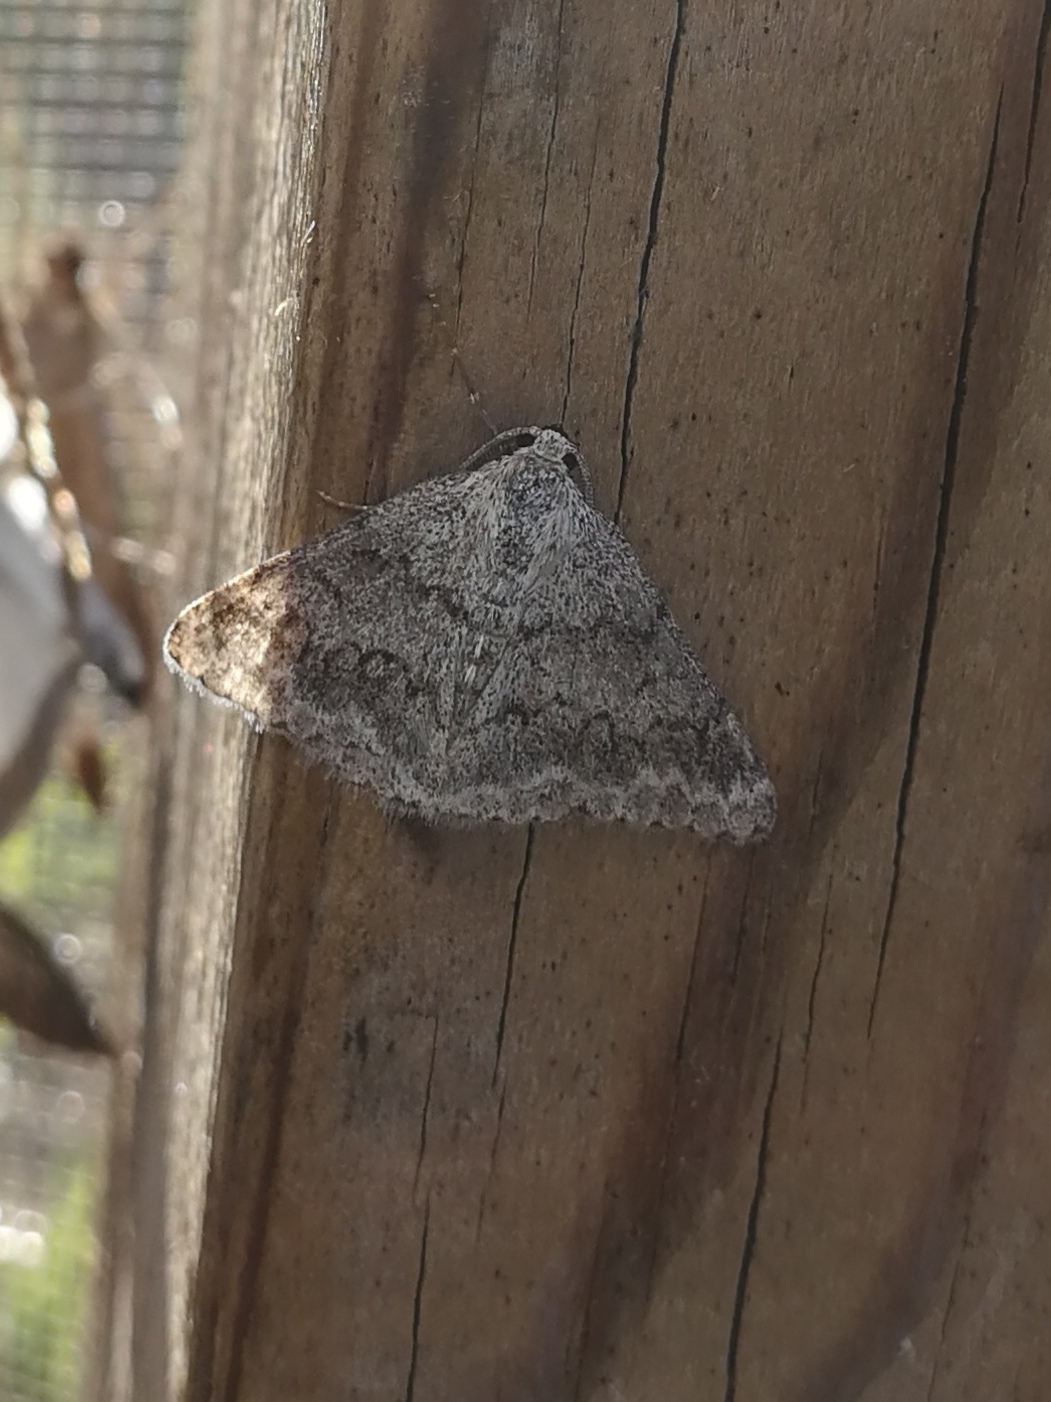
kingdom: Animalia
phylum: Arthropoda
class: Insecta
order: Lepidoptera
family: Geometridae
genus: Pseudoterpna
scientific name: Pseudoterpna coronillaria
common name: Jersey emerald
